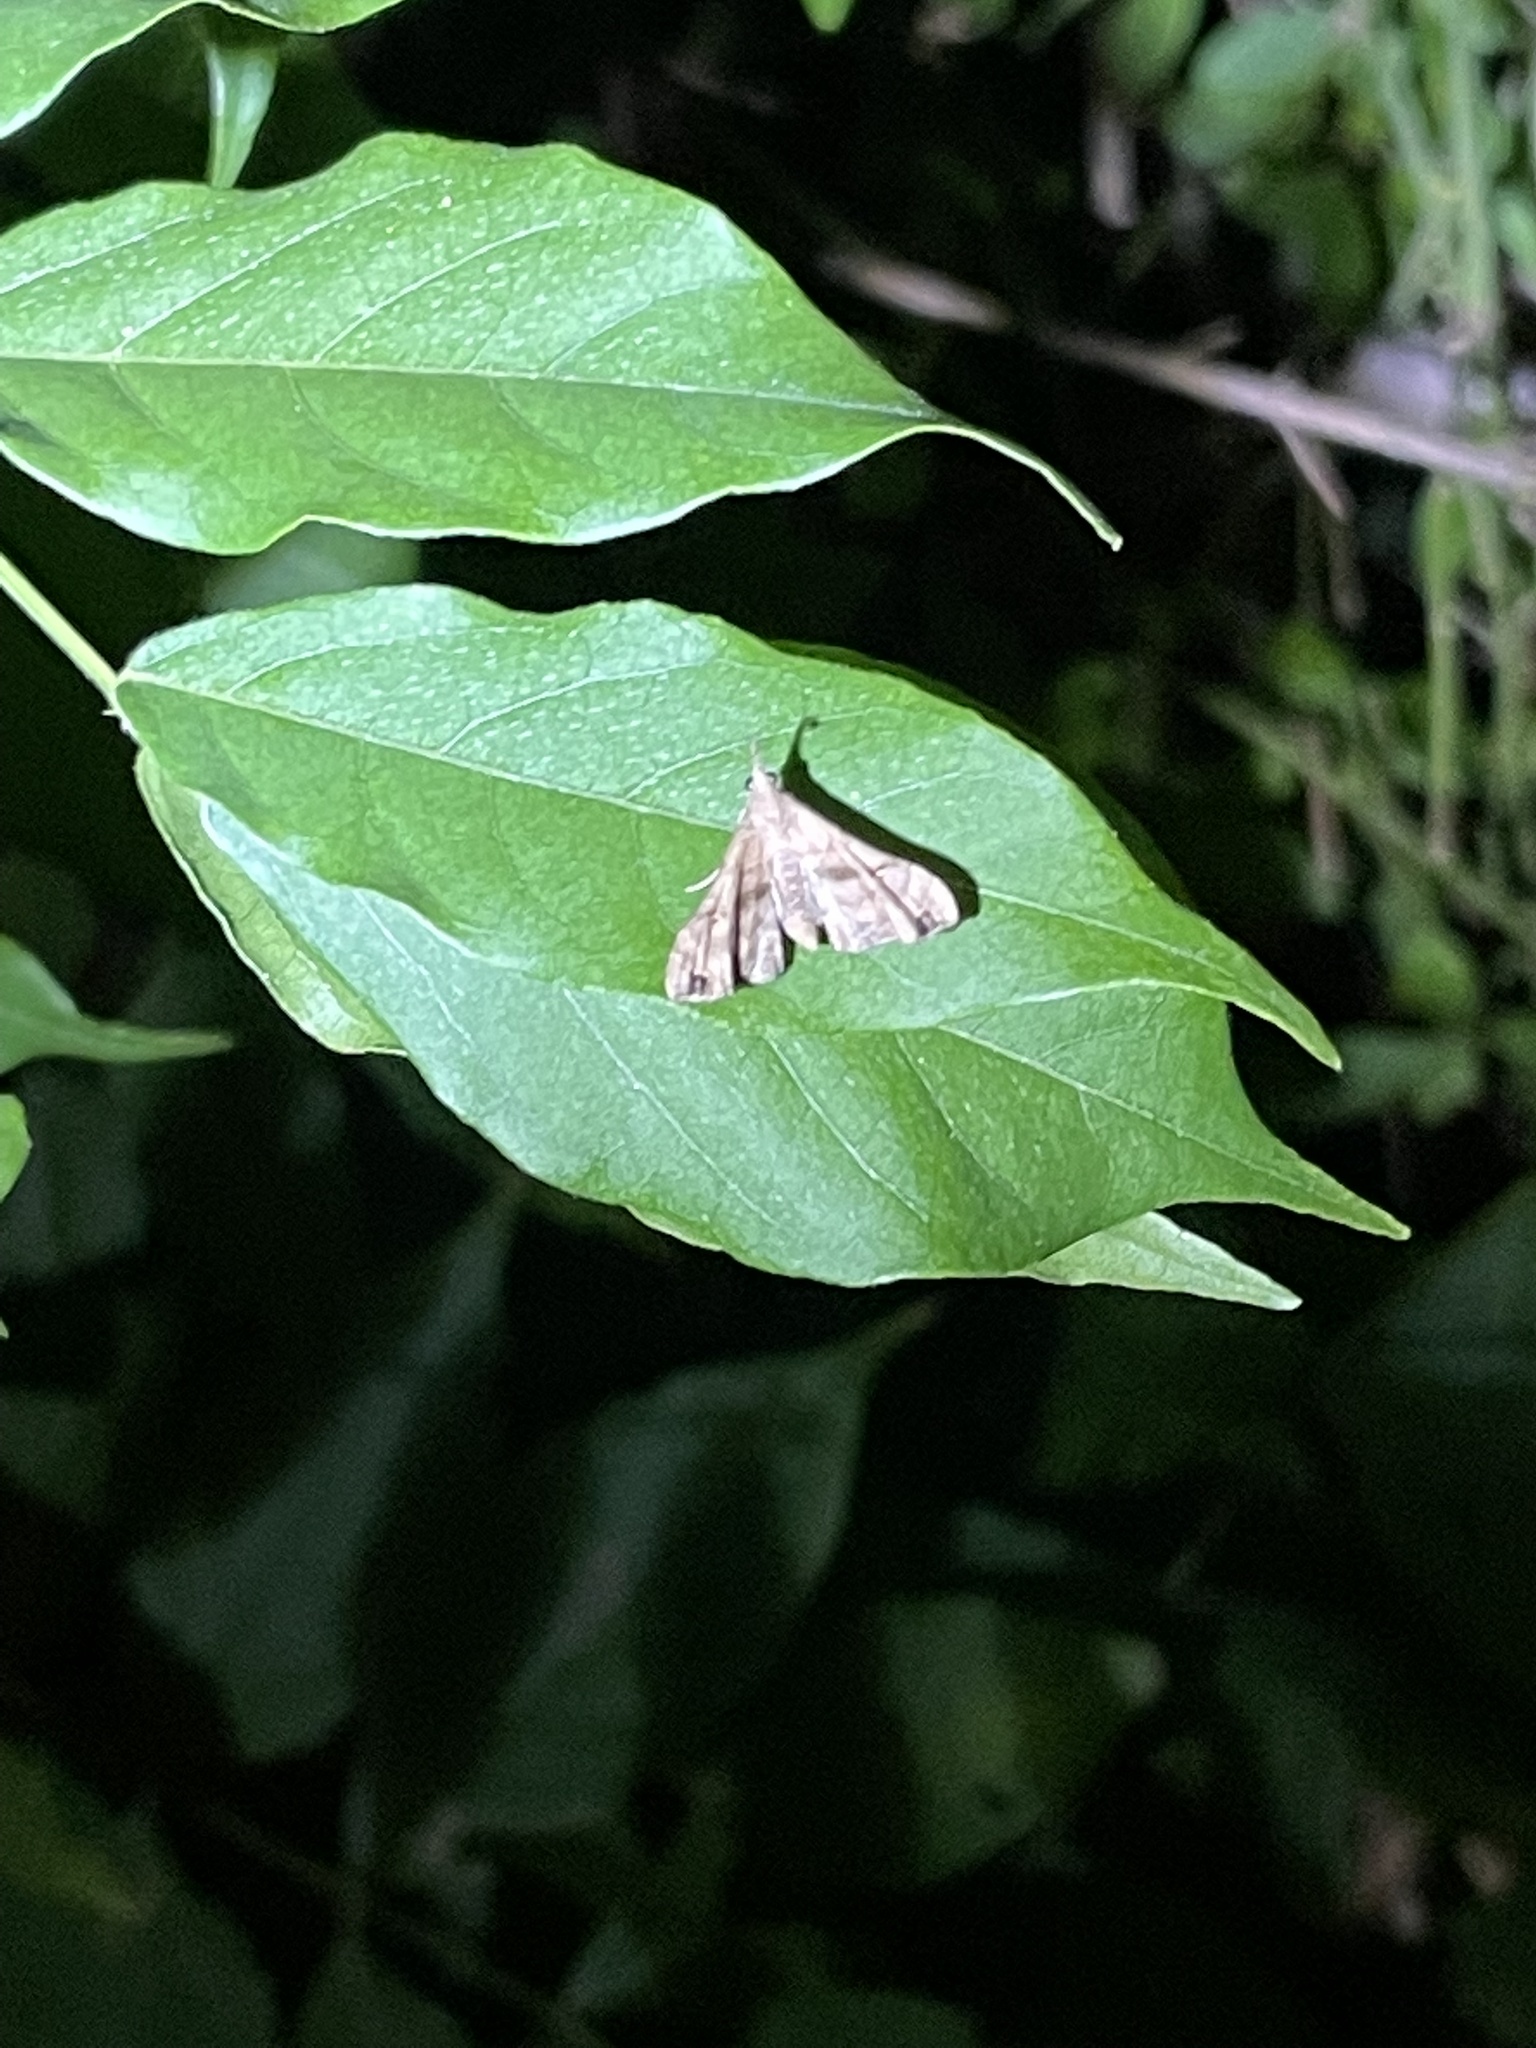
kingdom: Animalia
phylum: Arthropoda
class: Insecta
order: Lepidoptera
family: Erebidae
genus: Palthis
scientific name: Palthis asopialis
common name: Faint-spotted palthis moth
